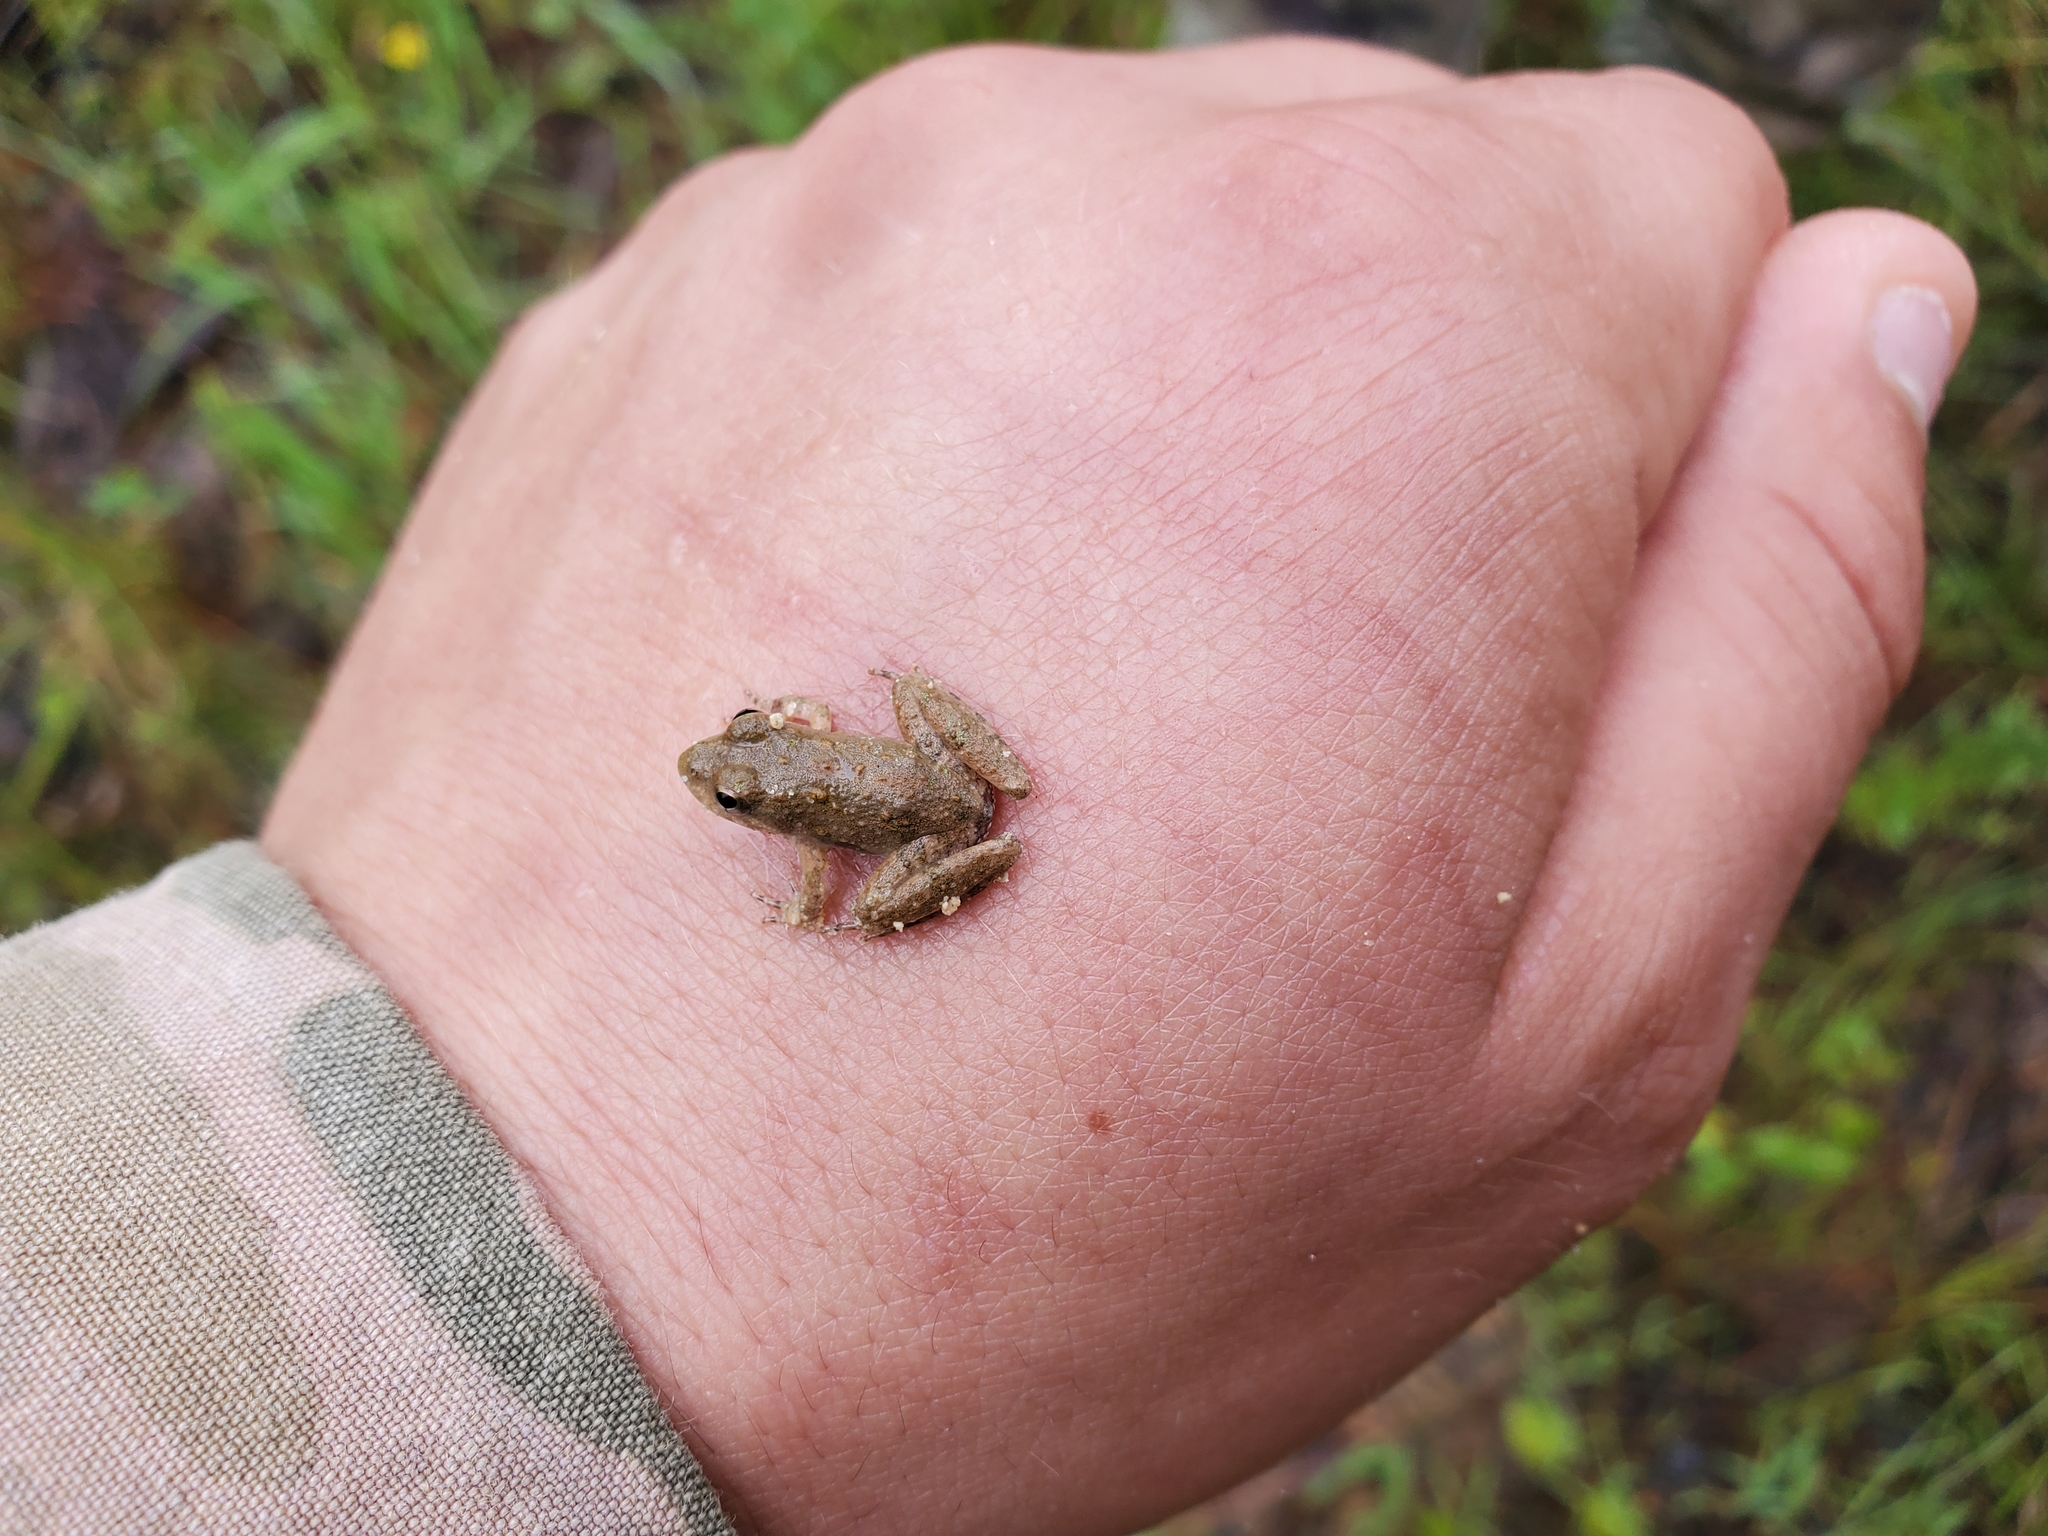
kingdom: Animalia
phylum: Chordata
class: Amphibia
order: Anura
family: Hylidae
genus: Acris
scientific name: Acris blanchardi
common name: Blanchard's cricket frog
